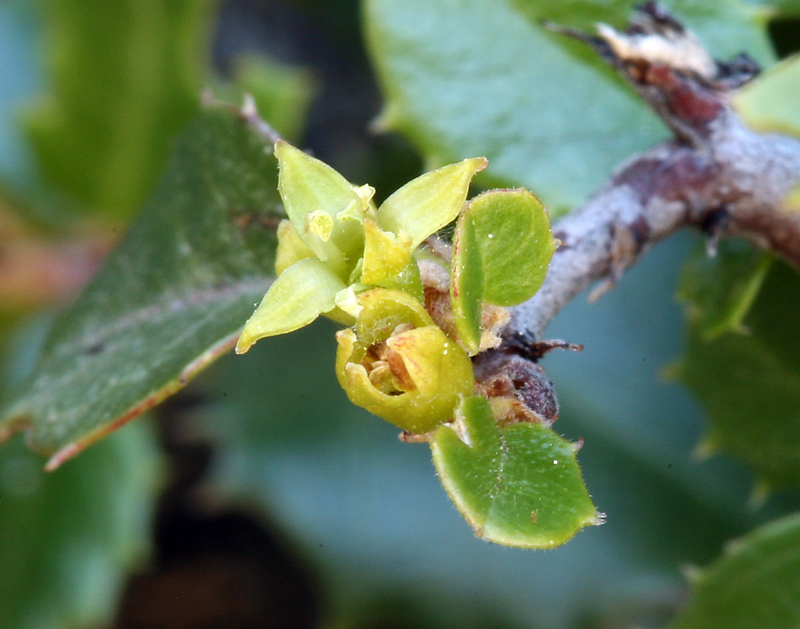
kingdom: Plantae
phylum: Tracheophyta
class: Magnoliopsida
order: Rosales
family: Rhamnaceae
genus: Endotropis
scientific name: Endotropis crocea
